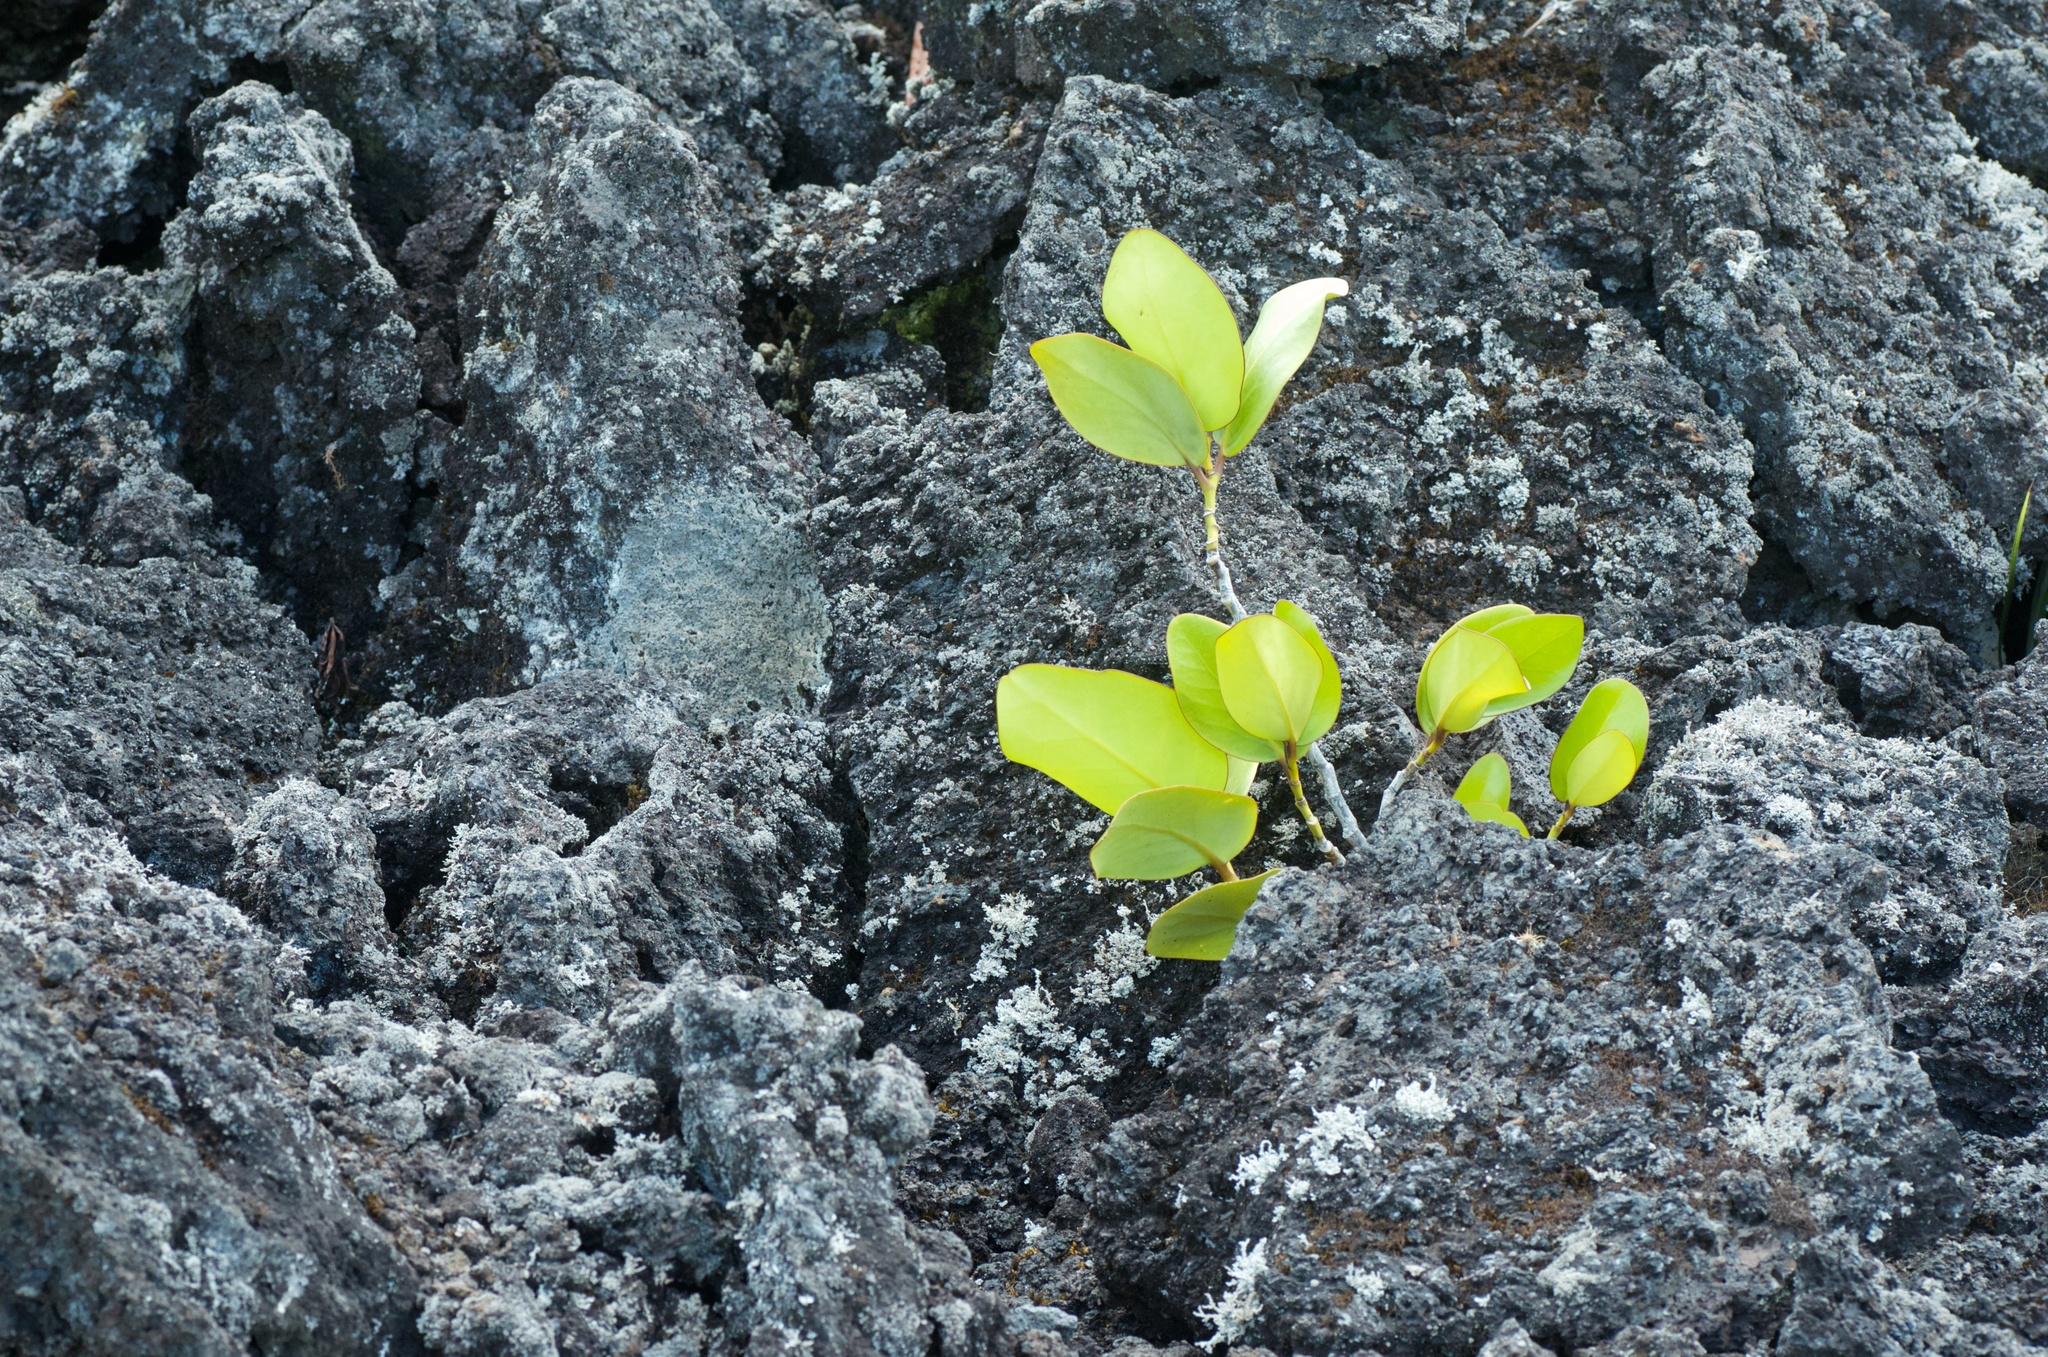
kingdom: Plantae
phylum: Tracheophyta
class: Magnoliopsida
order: Apiales
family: Griseliniaceae
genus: Griselinia
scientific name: Griselinia lucida
